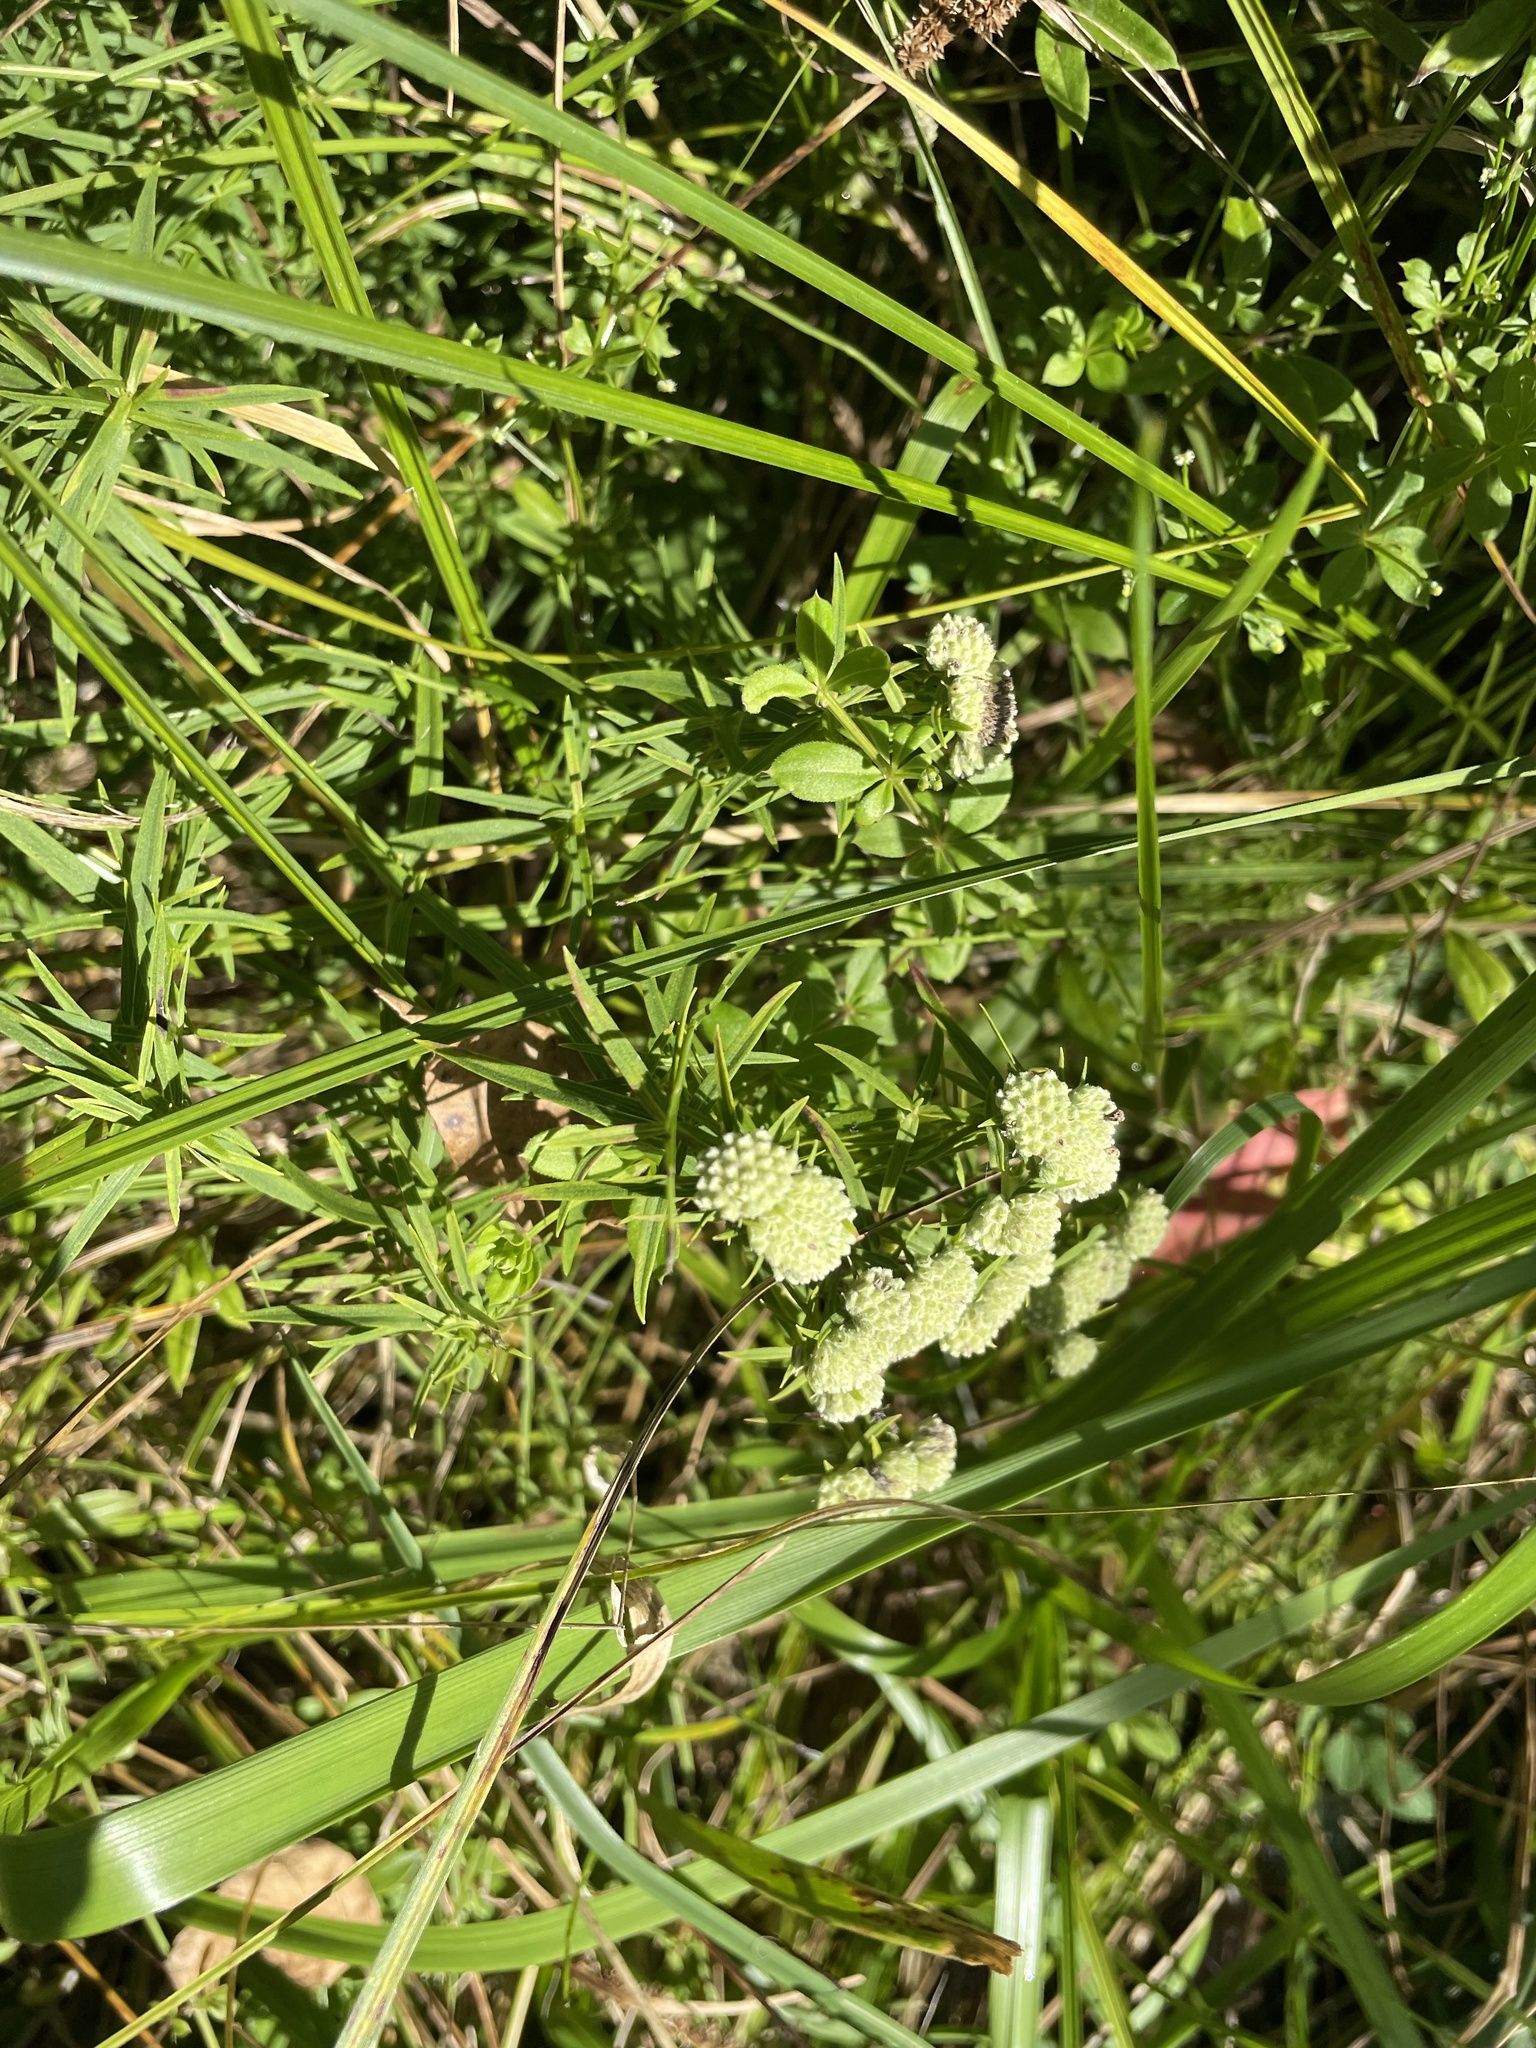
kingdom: Plantae
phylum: Tracheophyta
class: Magnoliopsida
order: Lamiales
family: Lamiaceae
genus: Pycnanthemum
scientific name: Pycnanthemum virginianum
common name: Virginia mountain-mint
